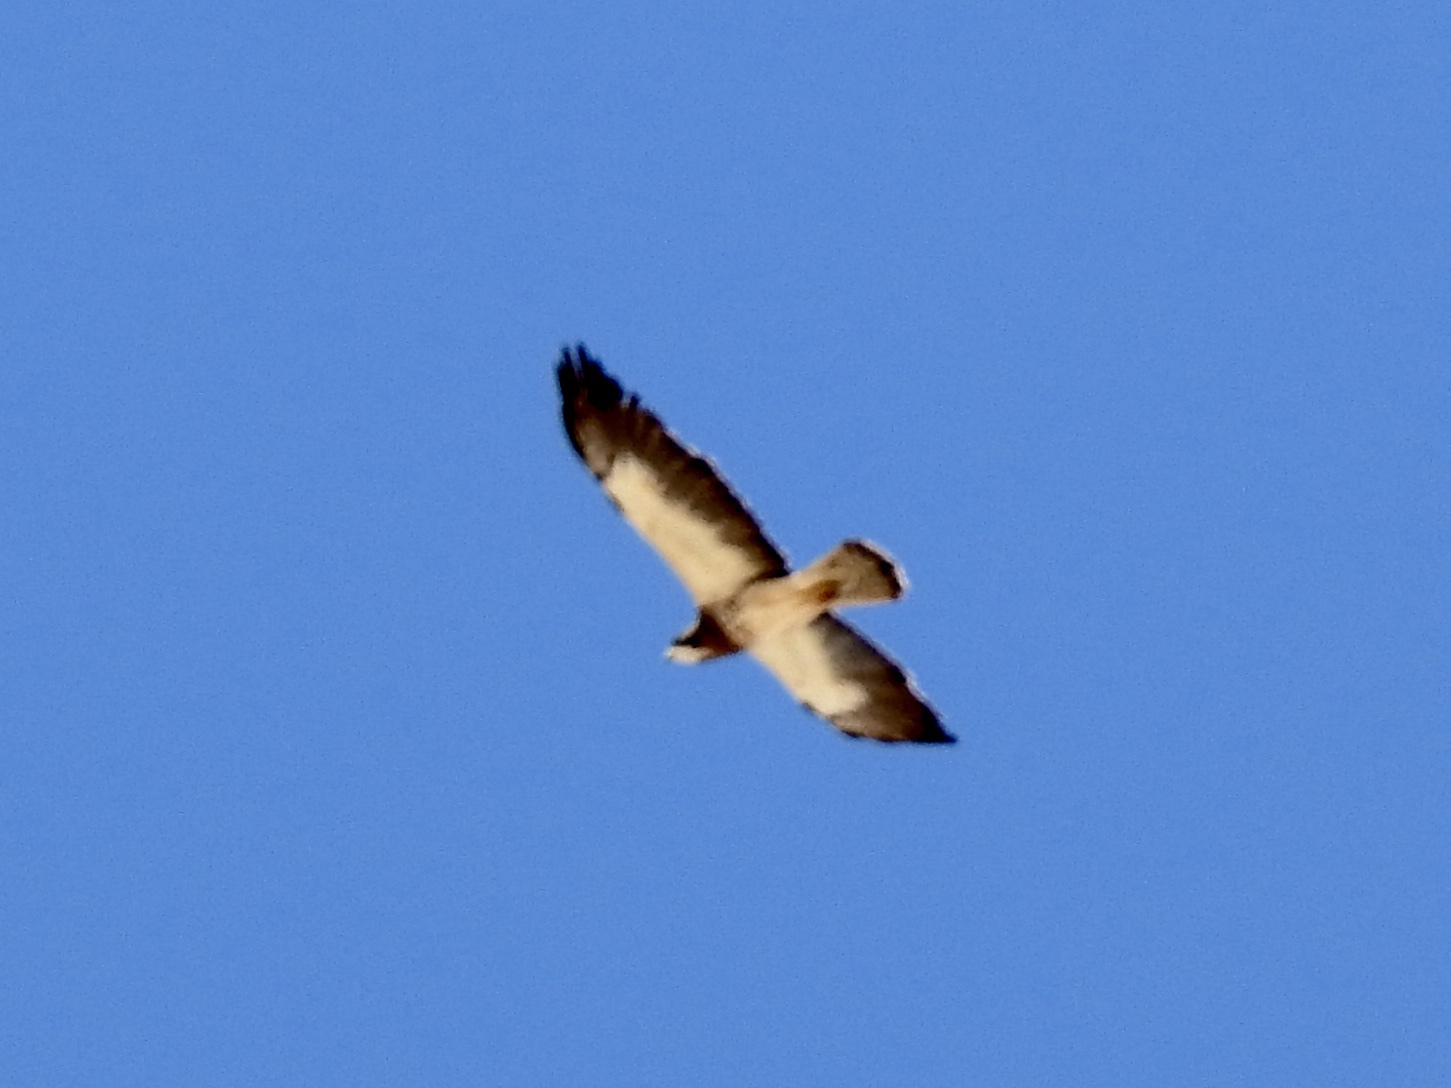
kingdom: Animalia
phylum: Chordata
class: Aves
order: Accipitriformes
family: Accipitridae
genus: Buteo
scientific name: Buteo swainsoni
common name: Swainson's hawk
